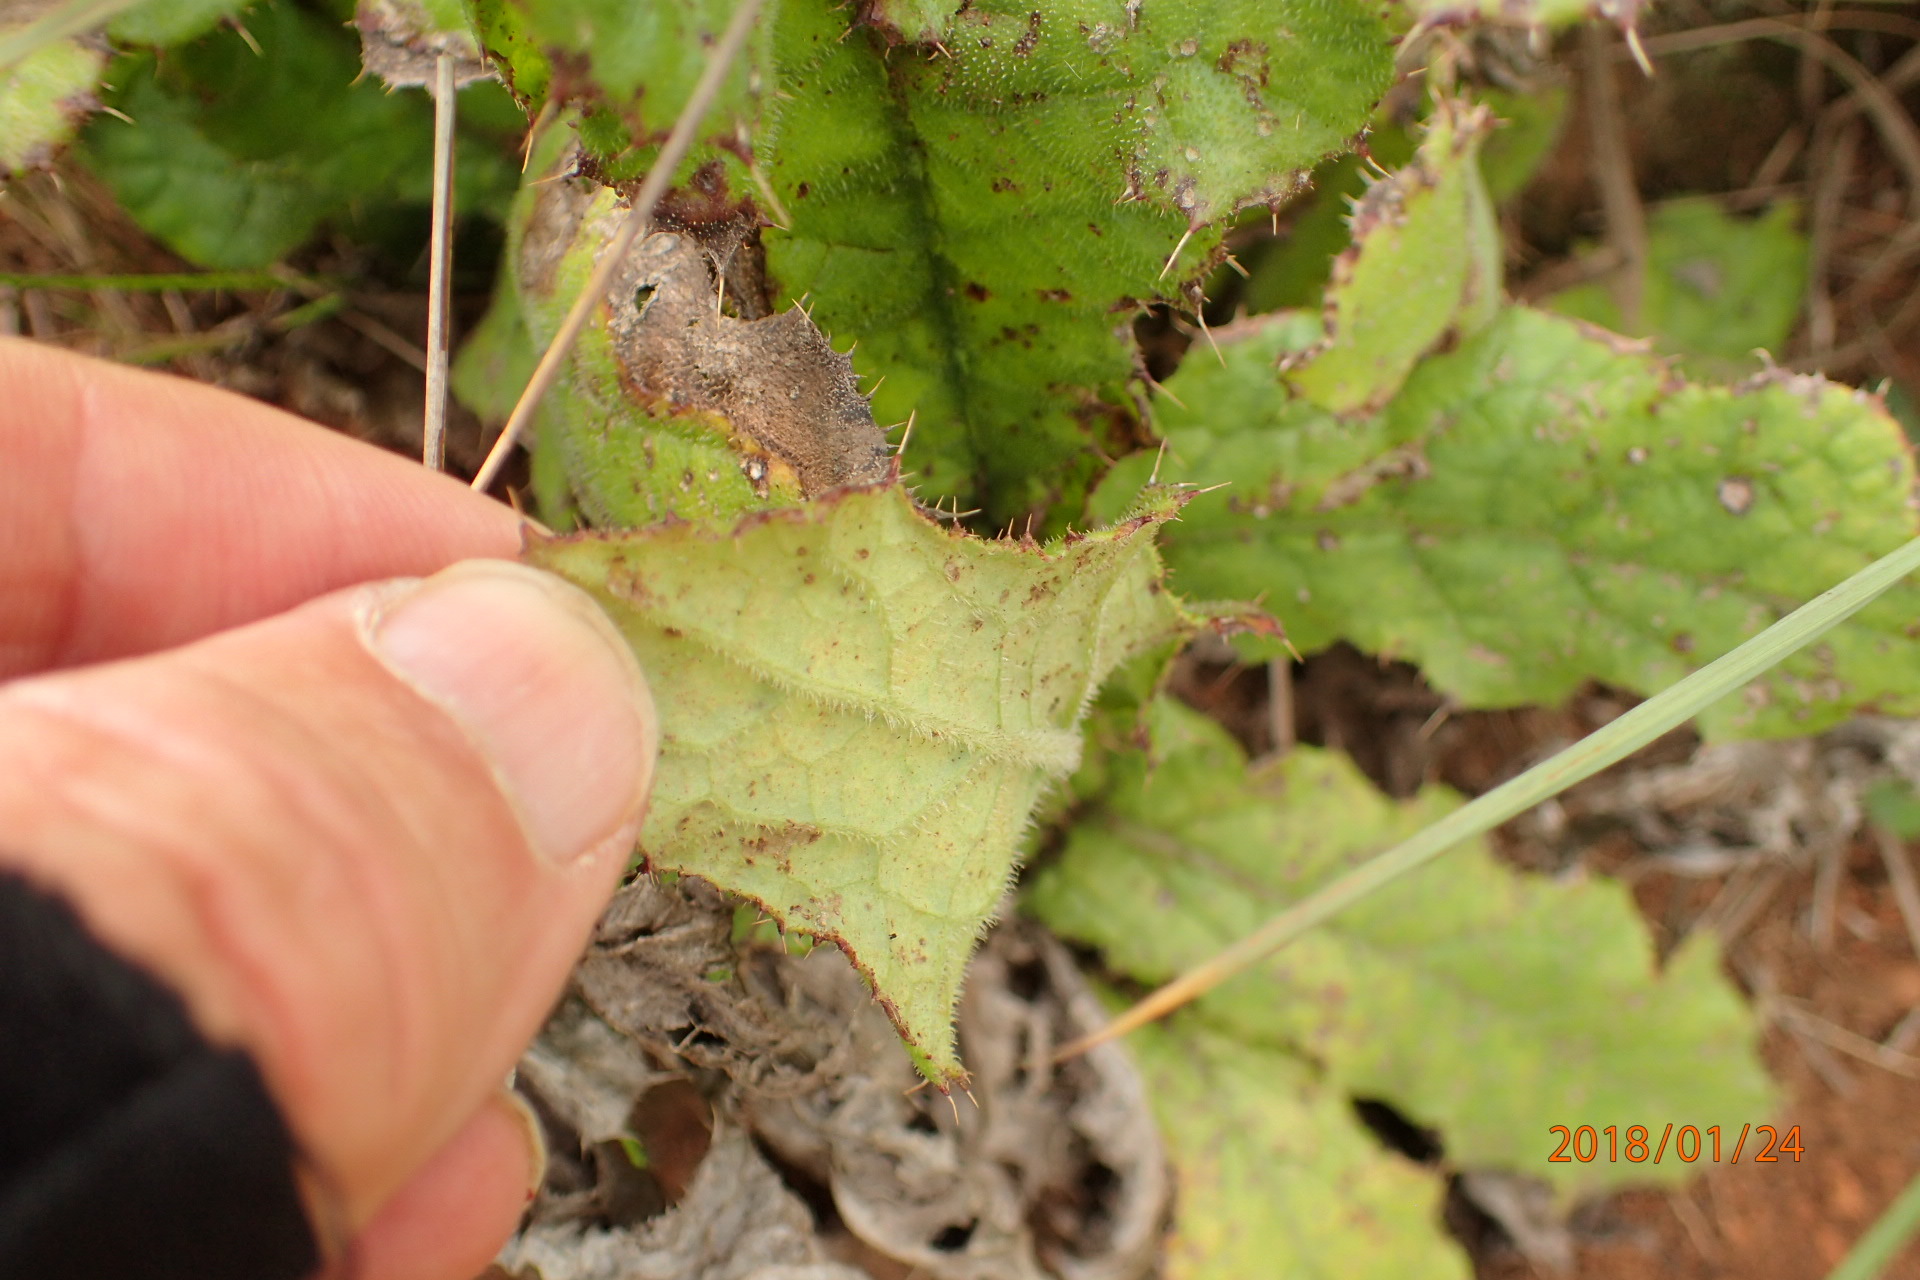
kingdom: Plantae
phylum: Tracheophyta
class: Magnoliopsida
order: Asterales
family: Asteraceae
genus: Berkheya
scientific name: Berkheya echinacea
